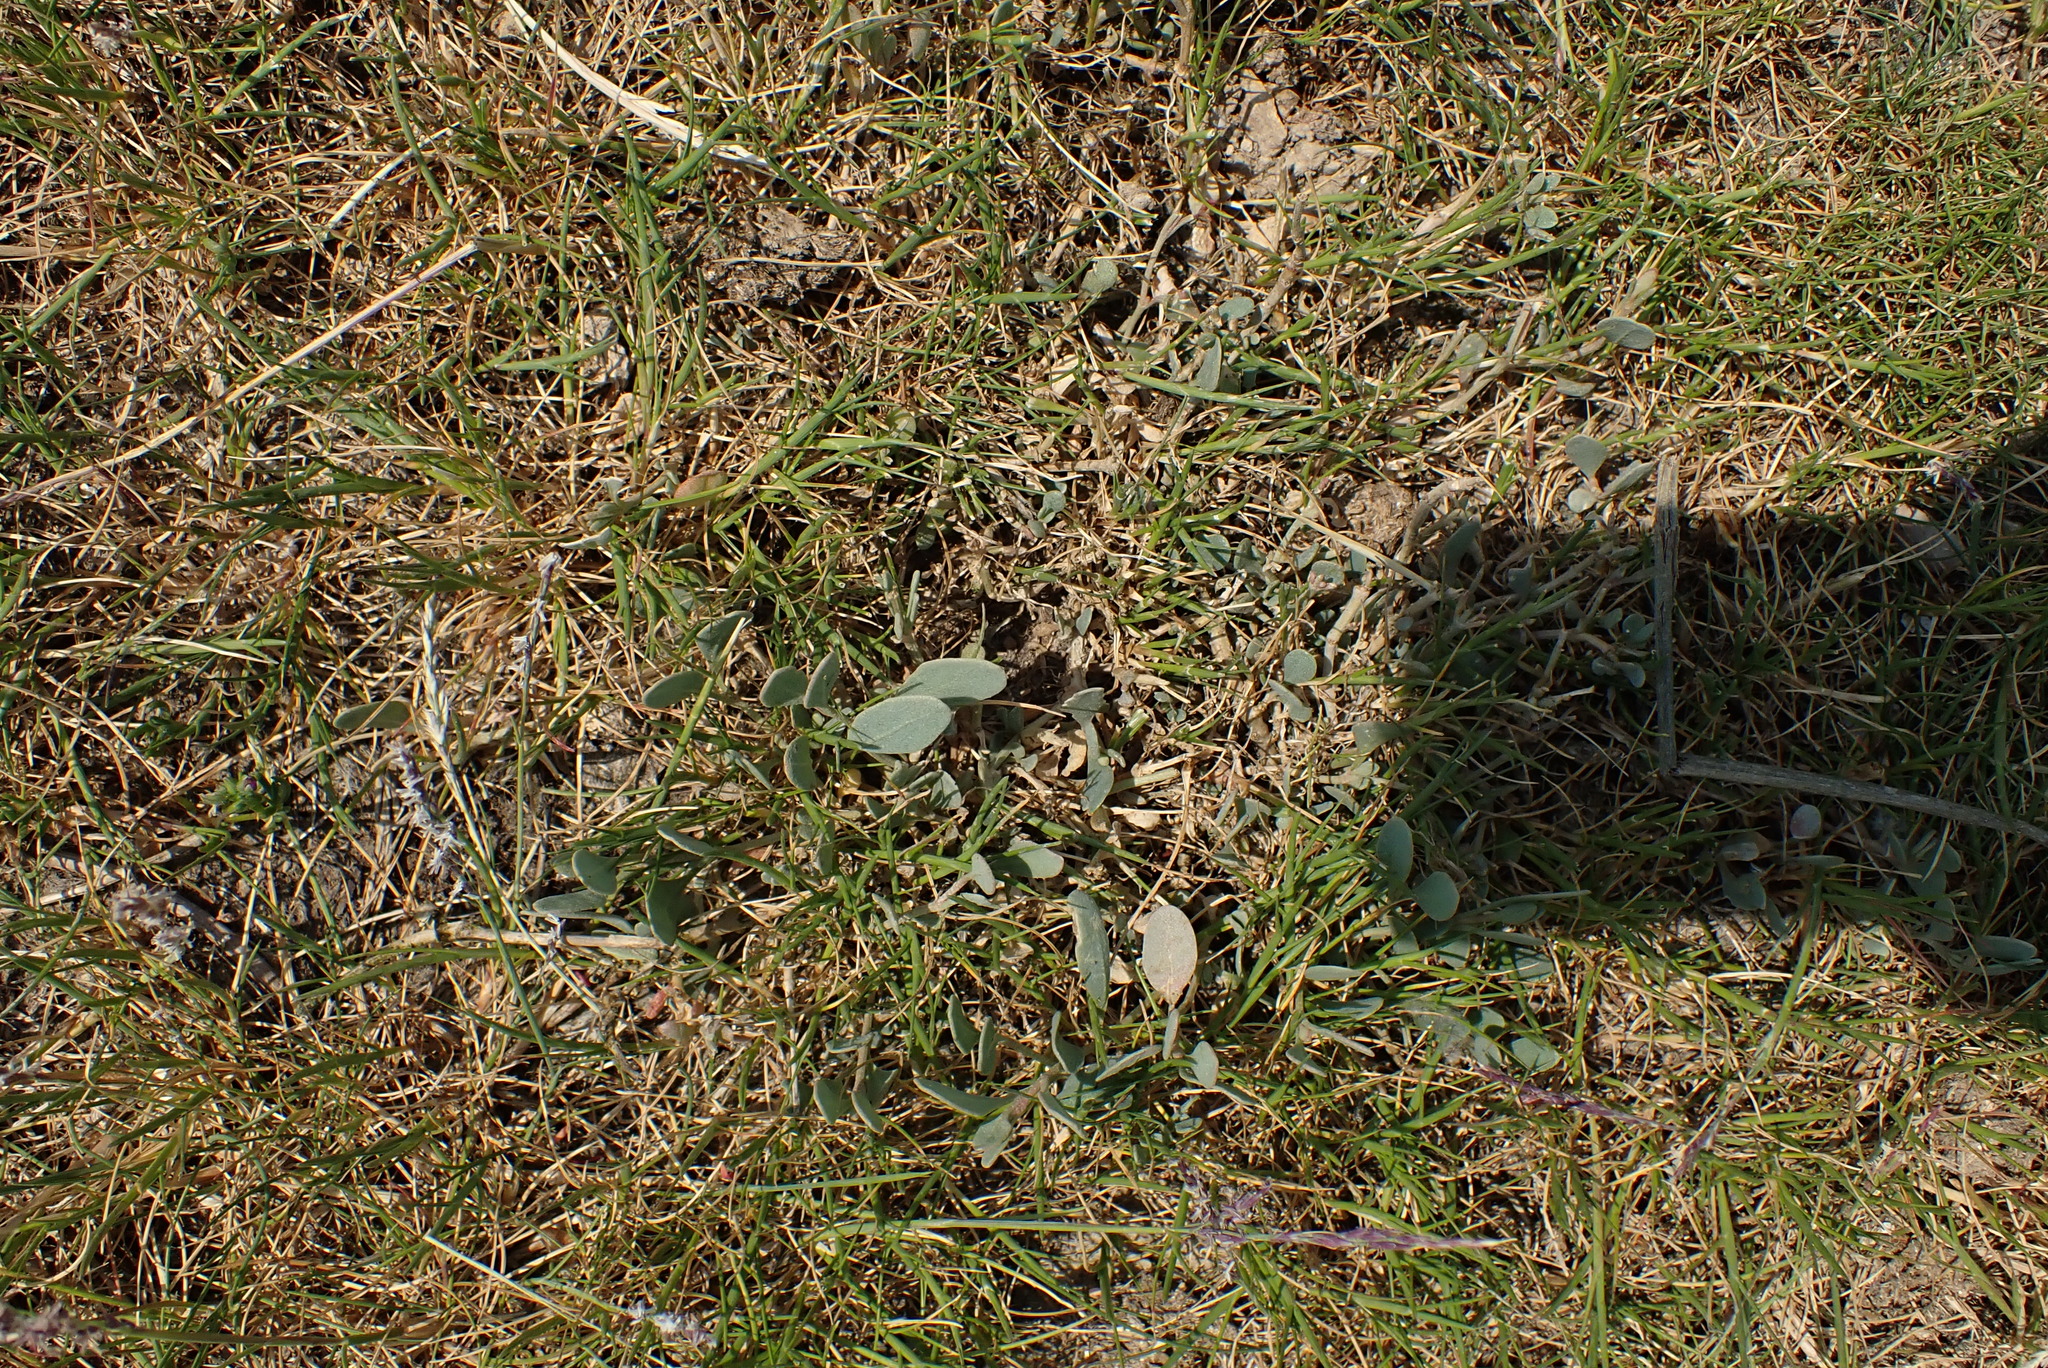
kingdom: Plantae
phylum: Tracheophyta
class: Magnoliopsida
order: Caryophyllales
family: Amaranthaceae
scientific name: Amaranthaceae
